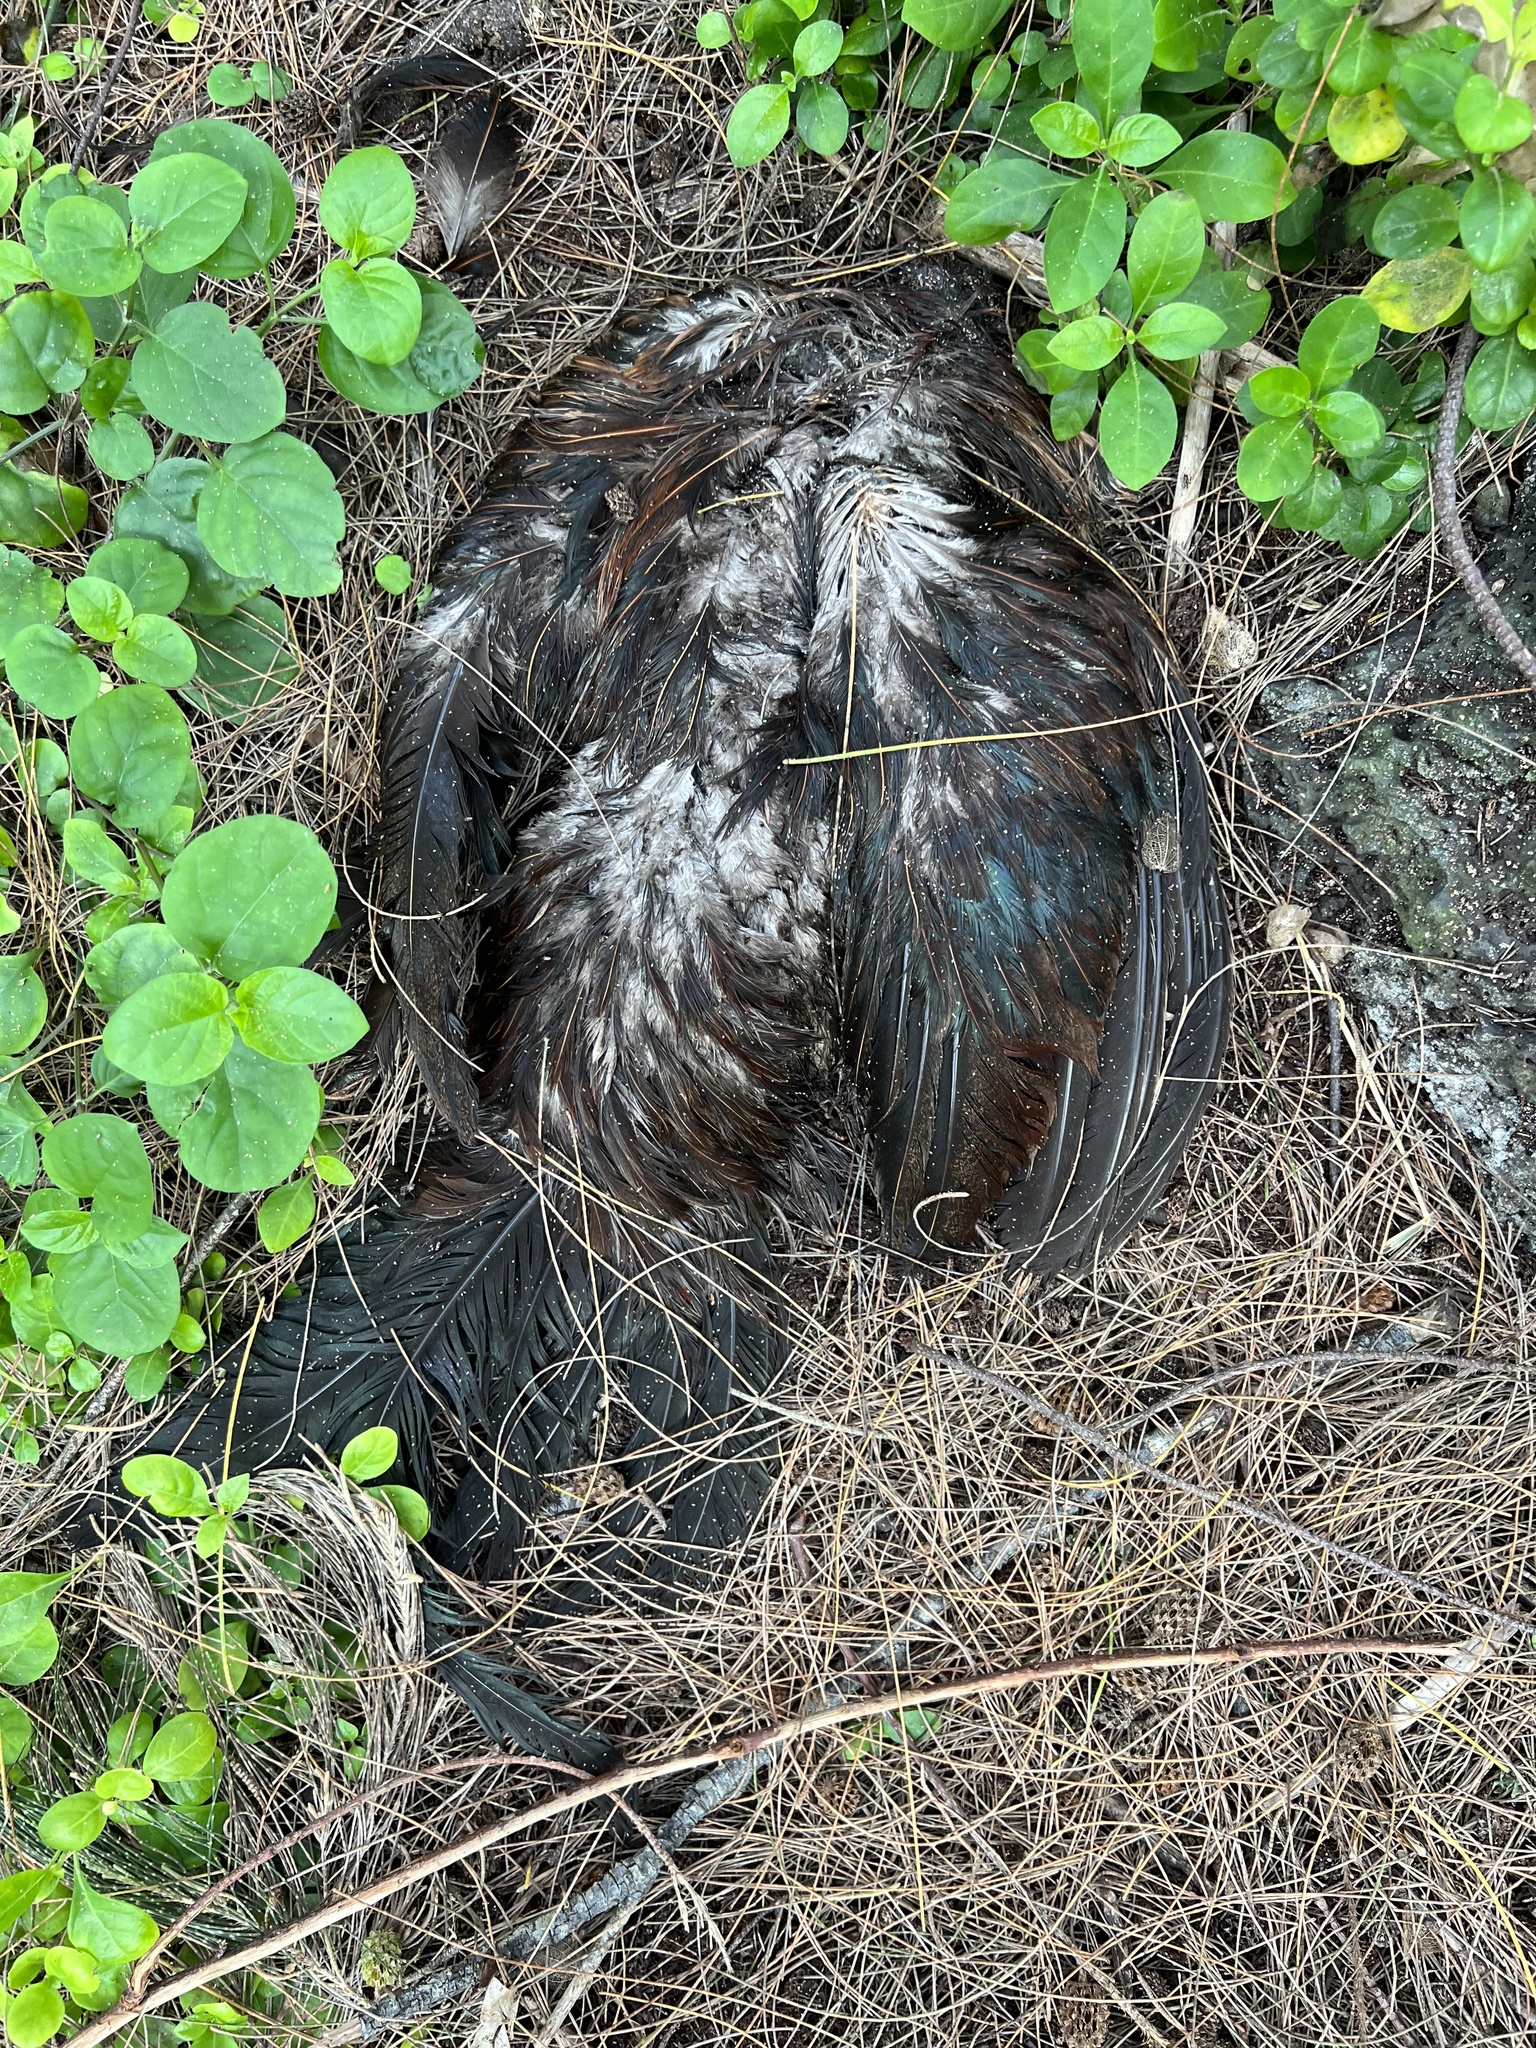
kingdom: Animalia
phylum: Chordata
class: Aves
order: Galliformes
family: Phasianidae
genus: Gallus
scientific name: Gallus gallus
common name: Red junglefowl
